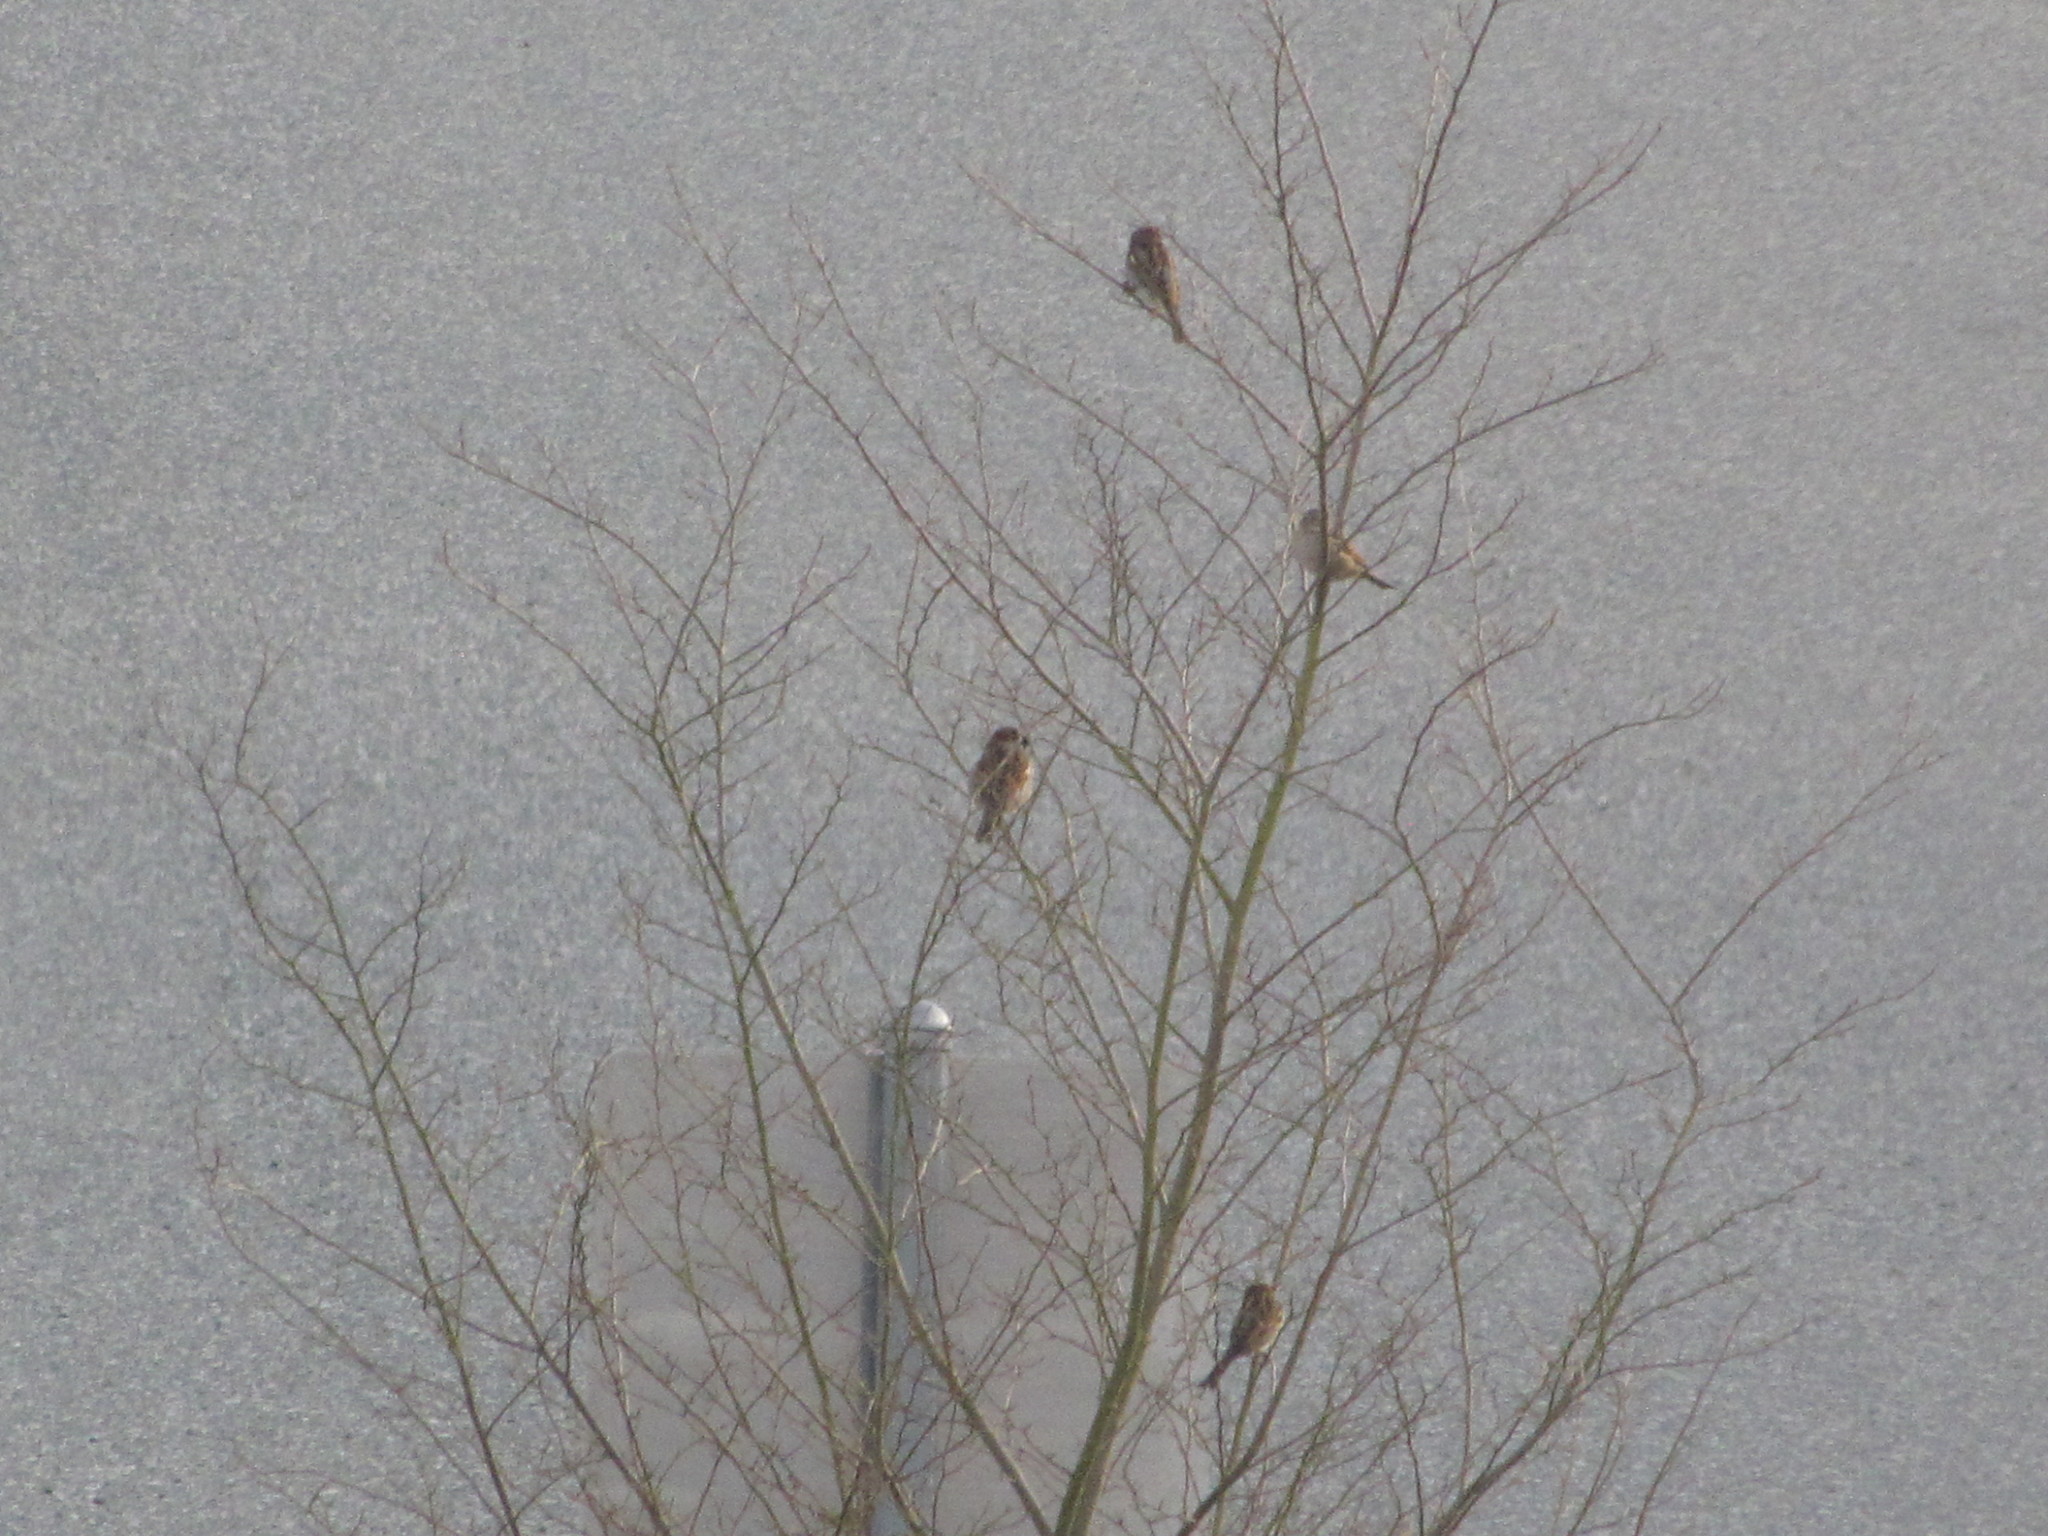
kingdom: Animalia
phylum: Chordata
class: Aves
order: Passeriformes
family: Passeridae
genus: Passer
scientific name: Passer domesticus
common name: House sparrow
